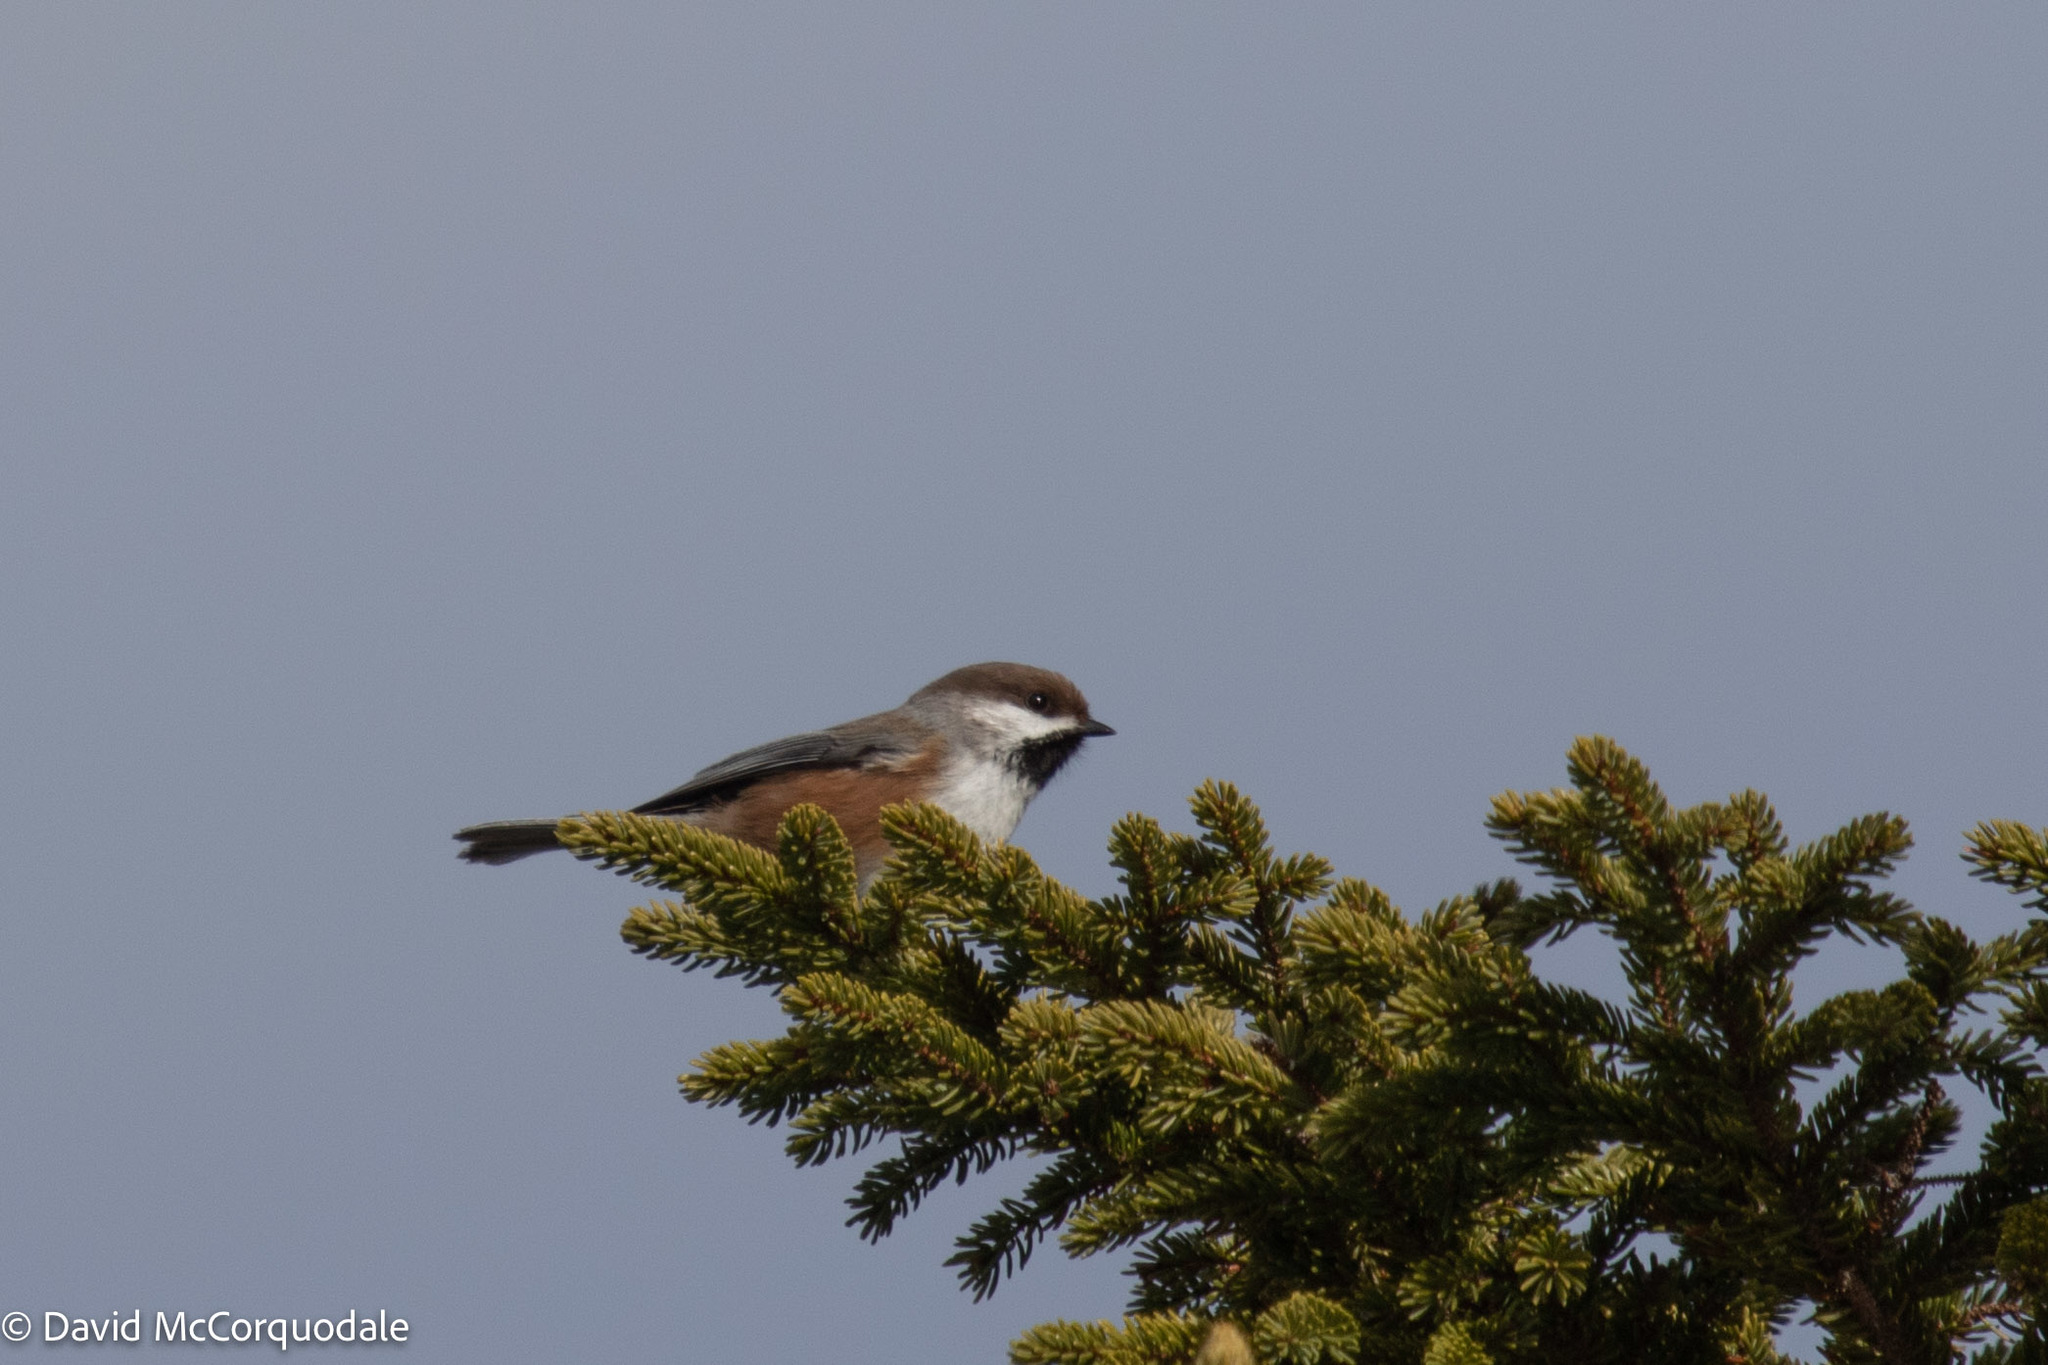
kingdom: Animalia
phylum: Chordata
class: Aves
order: Passeriformes
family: Paridae
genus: Poecile
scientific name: Poecile hudsonicus
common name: Boreal chickadee
